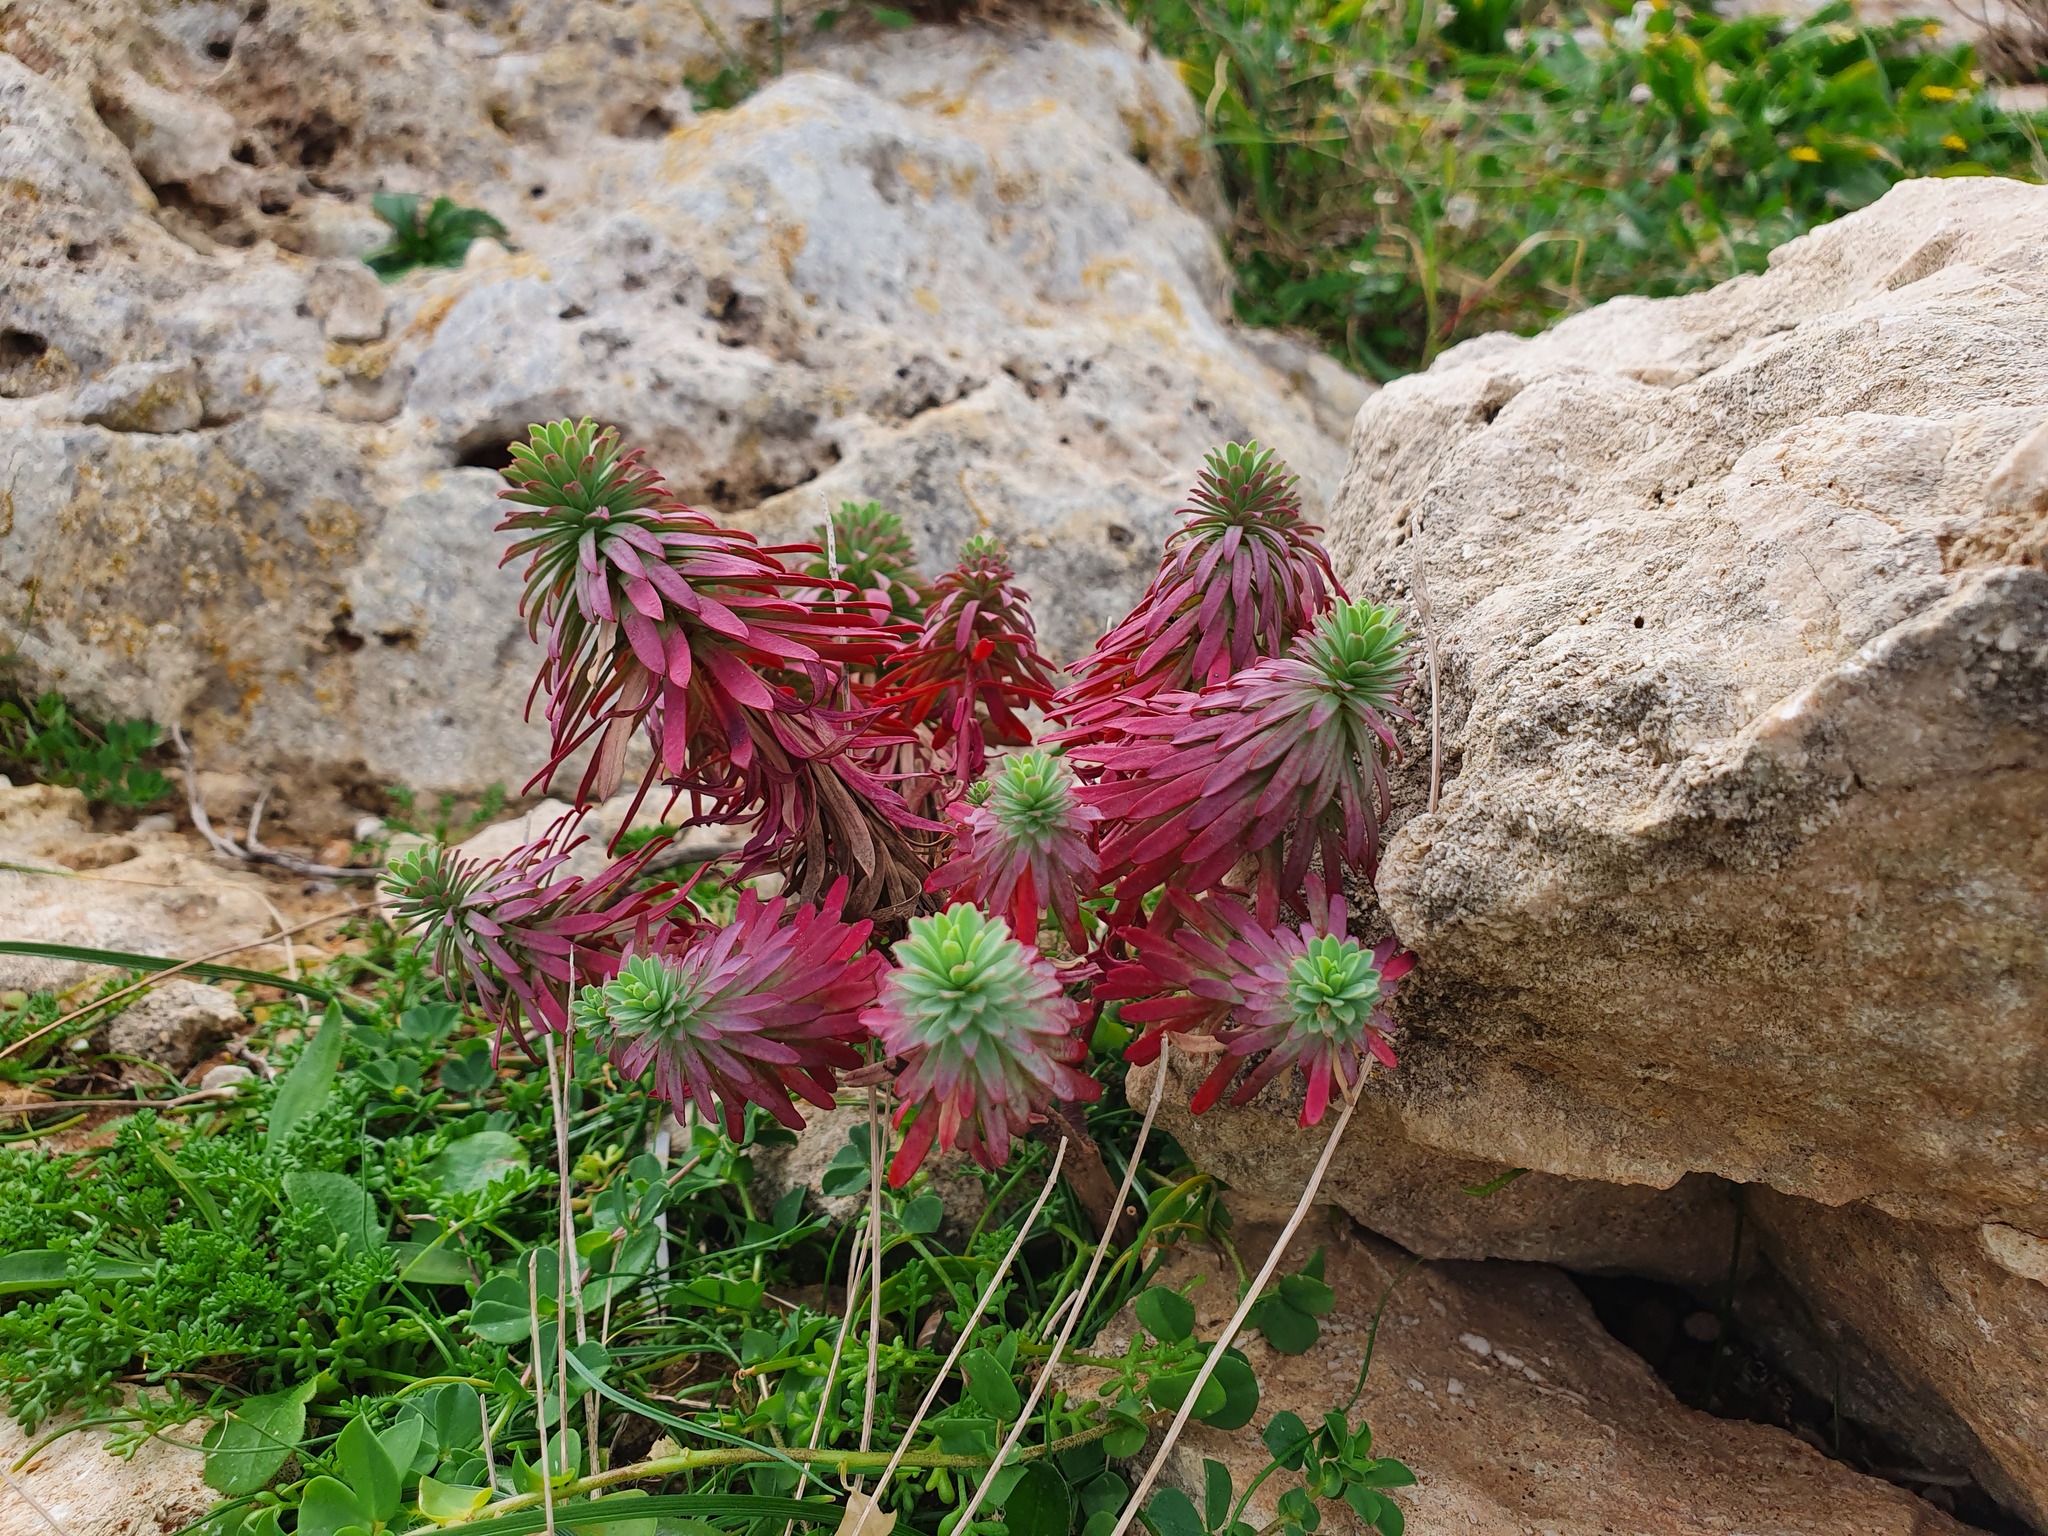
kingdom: Plantae
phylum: Tracheophyta
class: Magnoliopsida
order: Malpighiales
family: Euphorbiaceae
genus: Euphorbia
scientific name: Euphorbia segetalis
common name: Corn spurge
